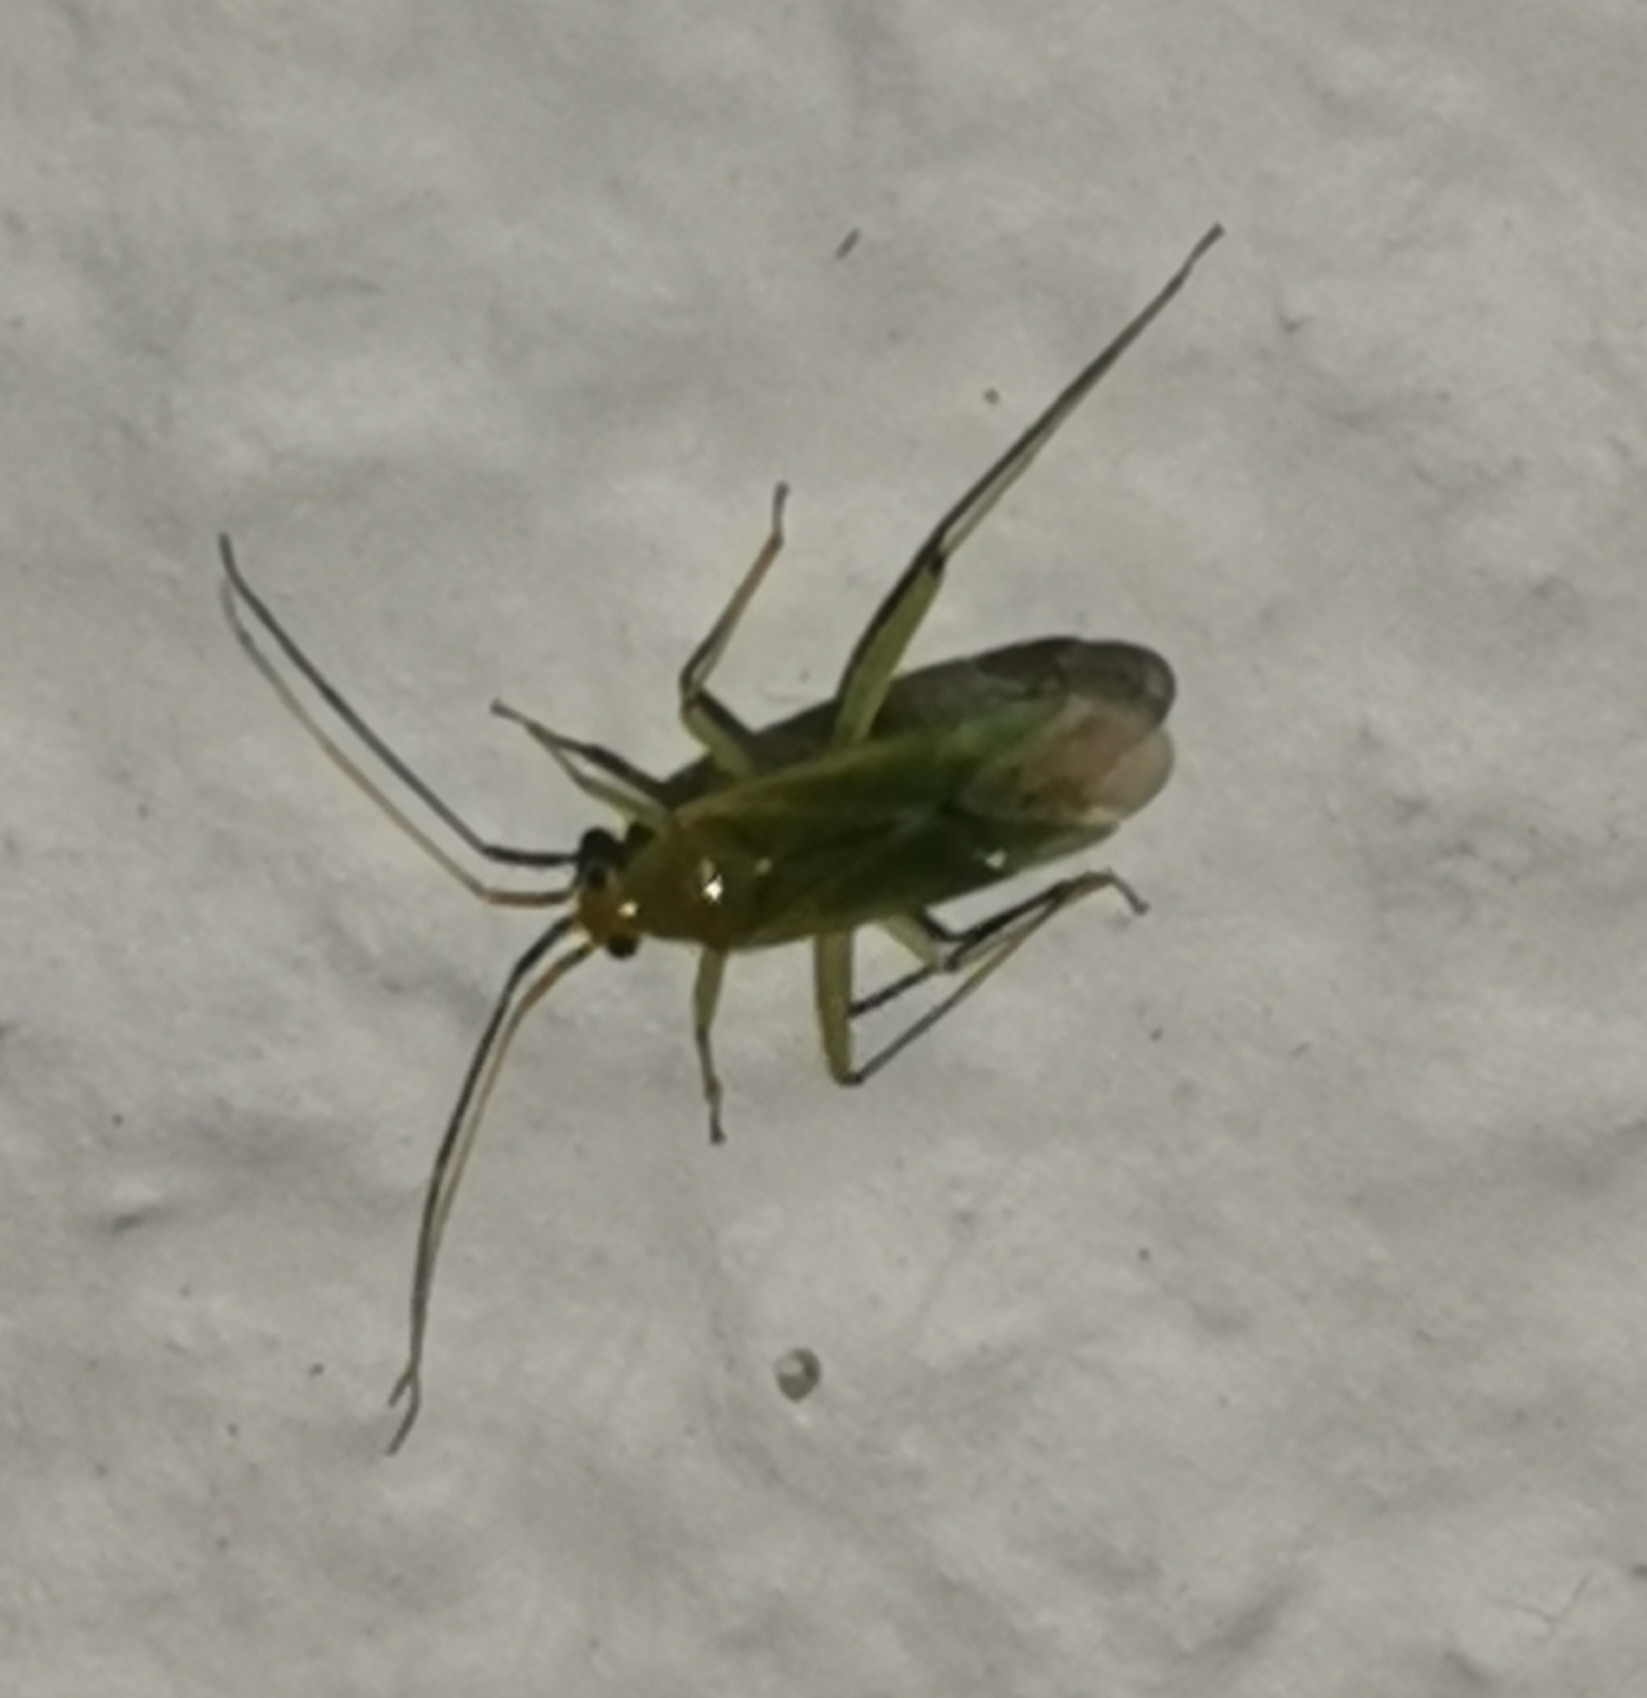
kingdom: Animalia
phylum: Arthropoda
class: Insecta
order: Hemiptera
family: Miridae
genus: Blepharidopterus
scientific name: Blepharidopterus angulatus
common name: Plant bug
